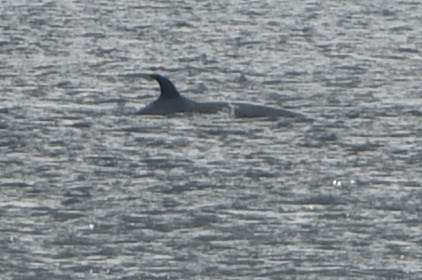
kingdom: Animalia
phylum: Chordata
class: Mammalia
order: Cetacea
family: Balaenopteridae
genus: Balaenoptera
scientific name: Balaenoptera borealis
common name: Sei whale
